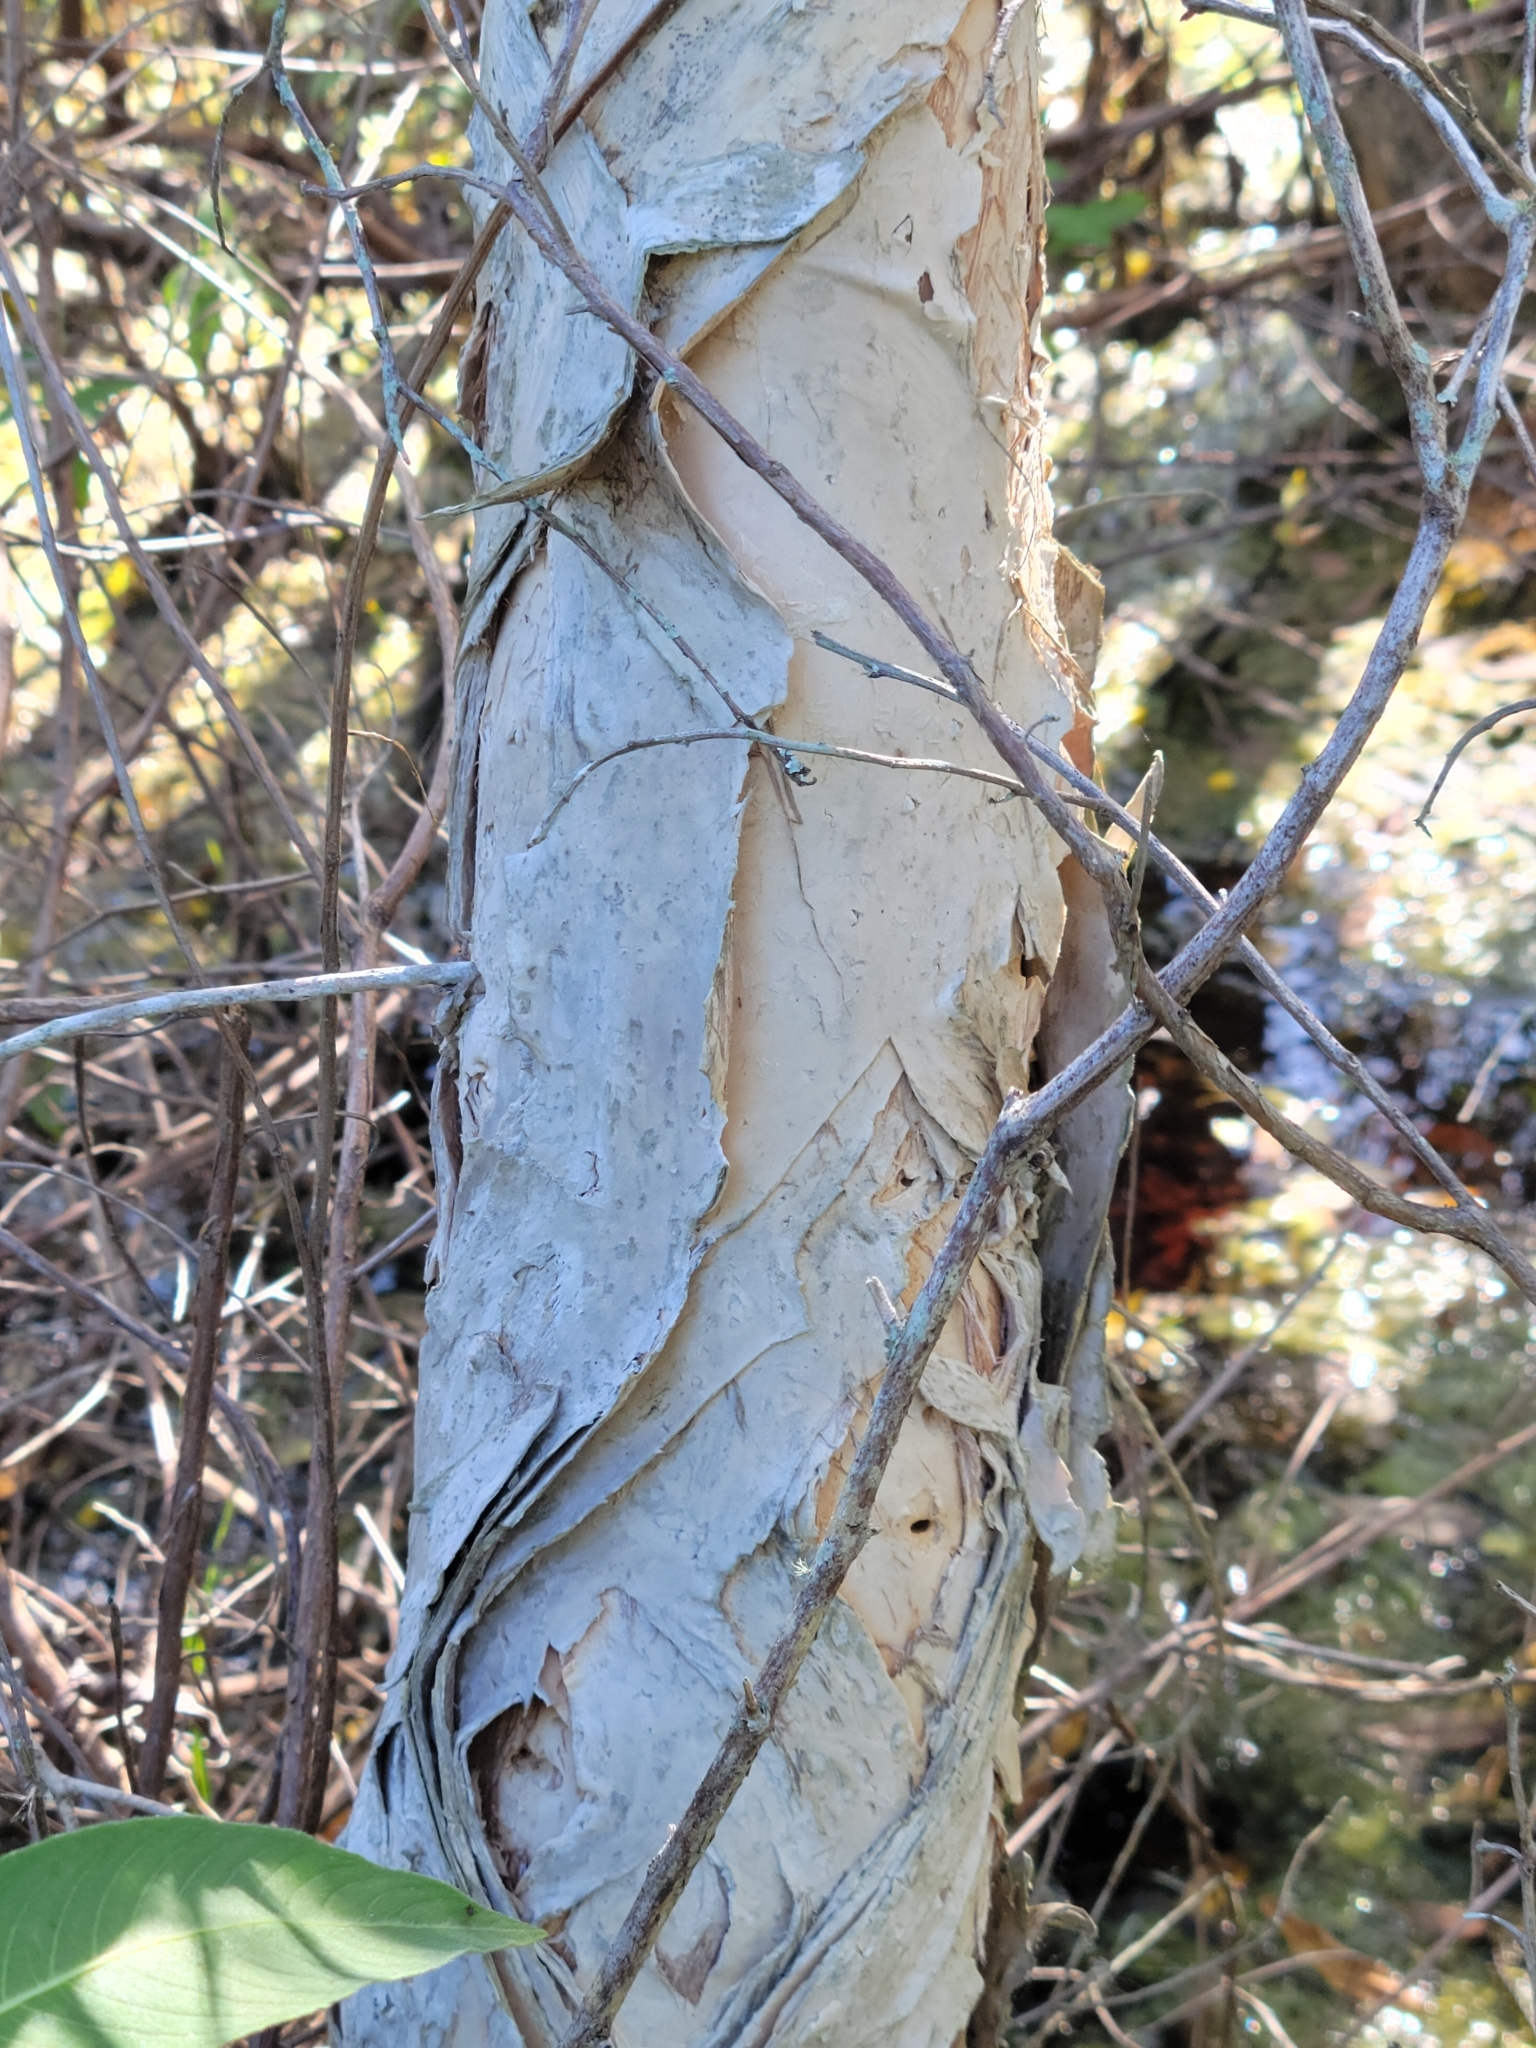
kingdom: Plantae
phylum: Tracheophyta
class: Magnoliopsida
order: Myrtales
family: Myrtaceae
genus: Melaleuca
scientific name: Melaleuca quinquenervia
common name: Punktree
